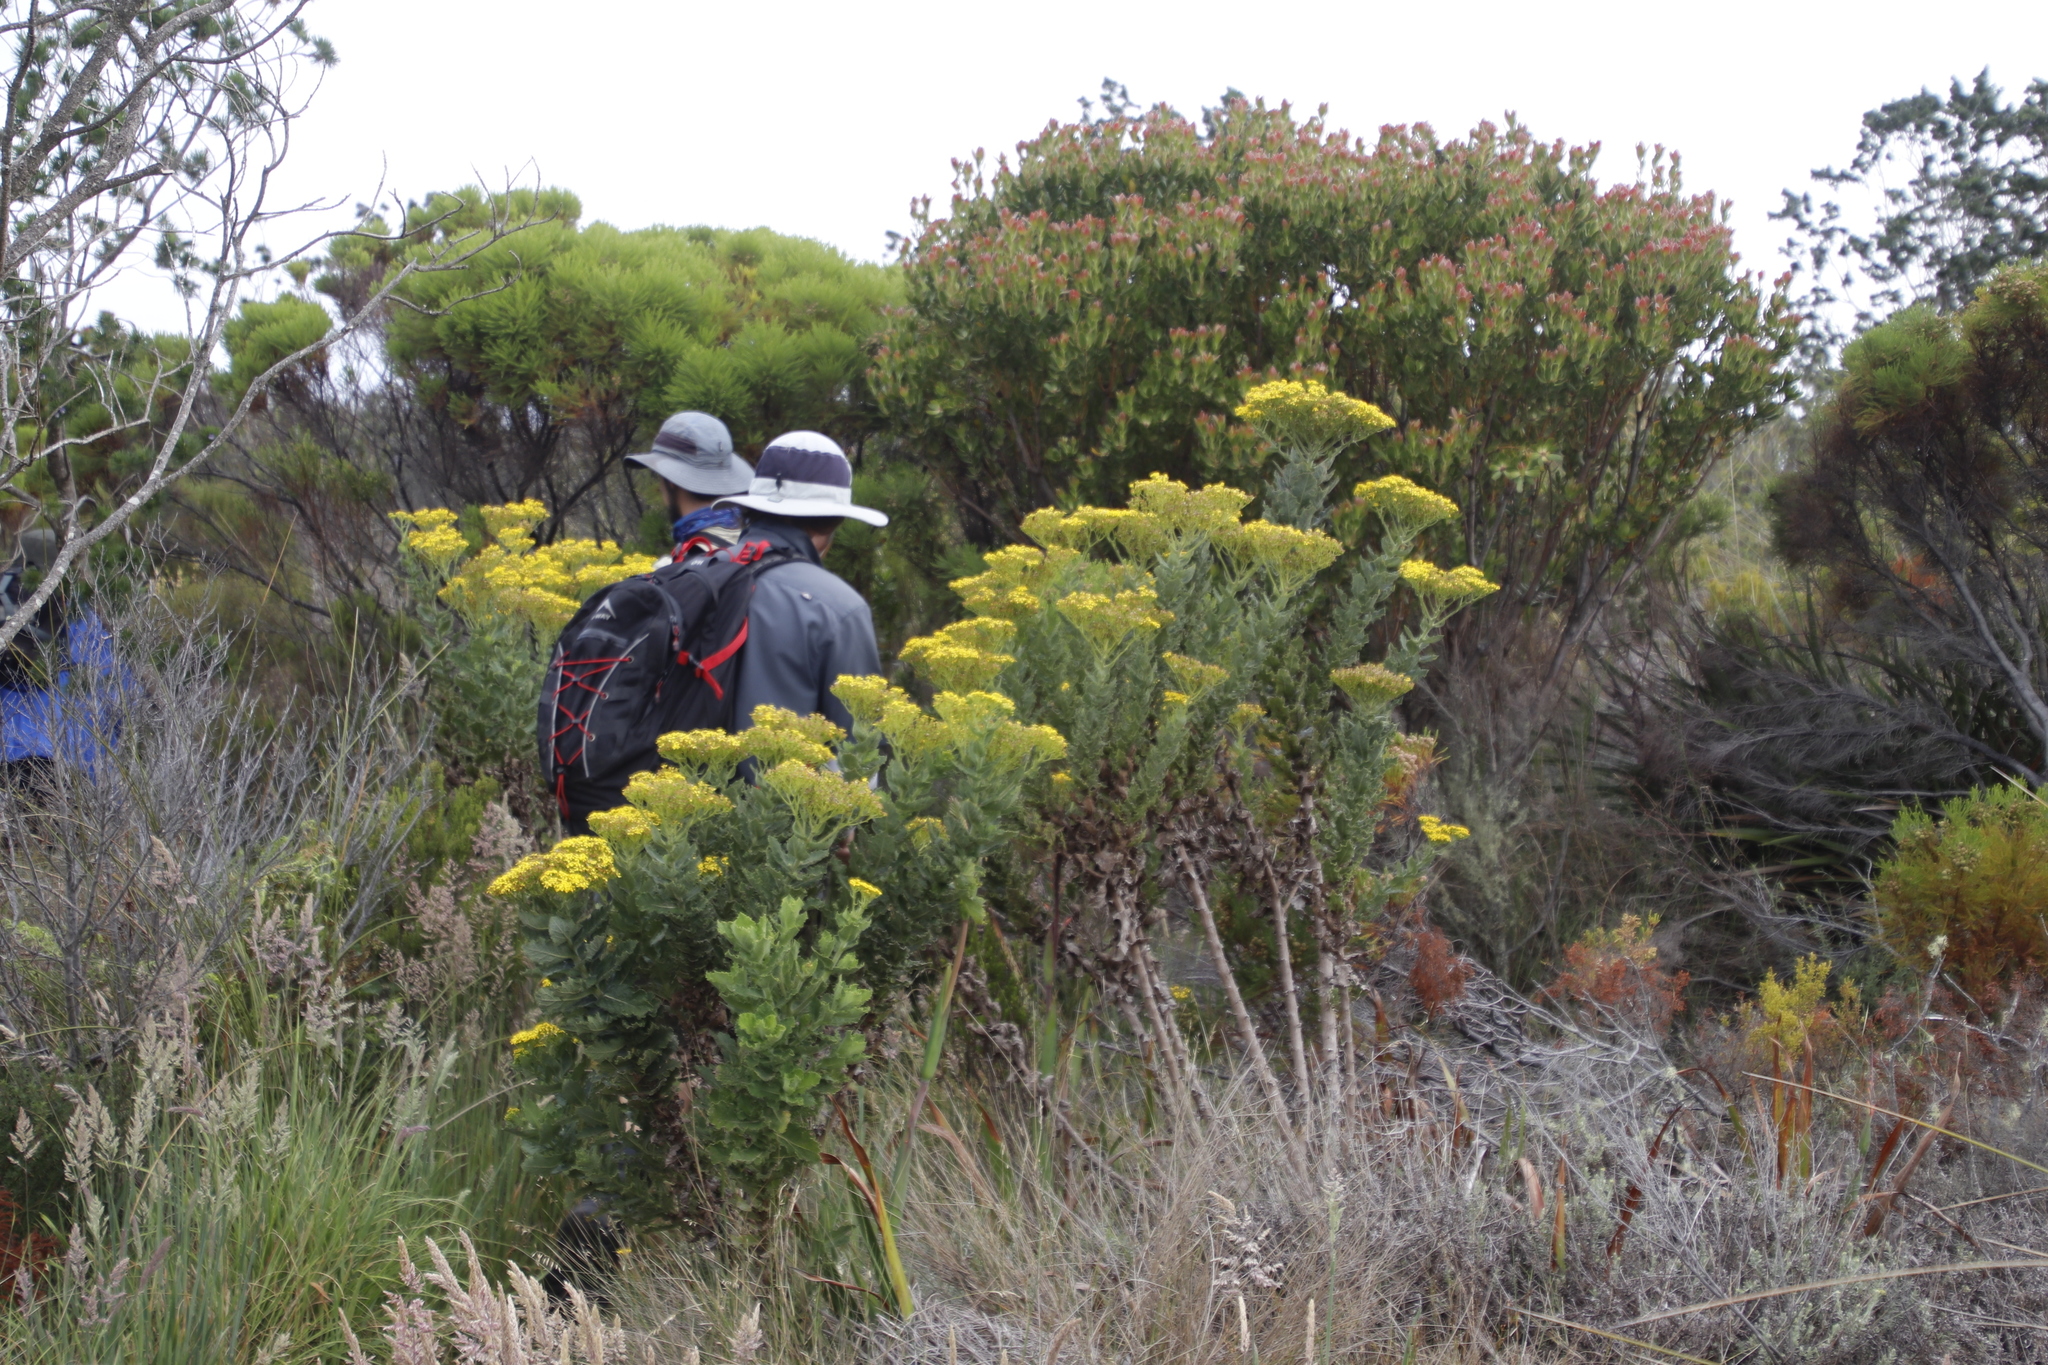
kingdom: Plantae
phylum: Tracheophyta
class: Magnoliopsida
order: Asterales
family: Asteraceae
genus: Senecio
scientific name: Senecio rigidus
